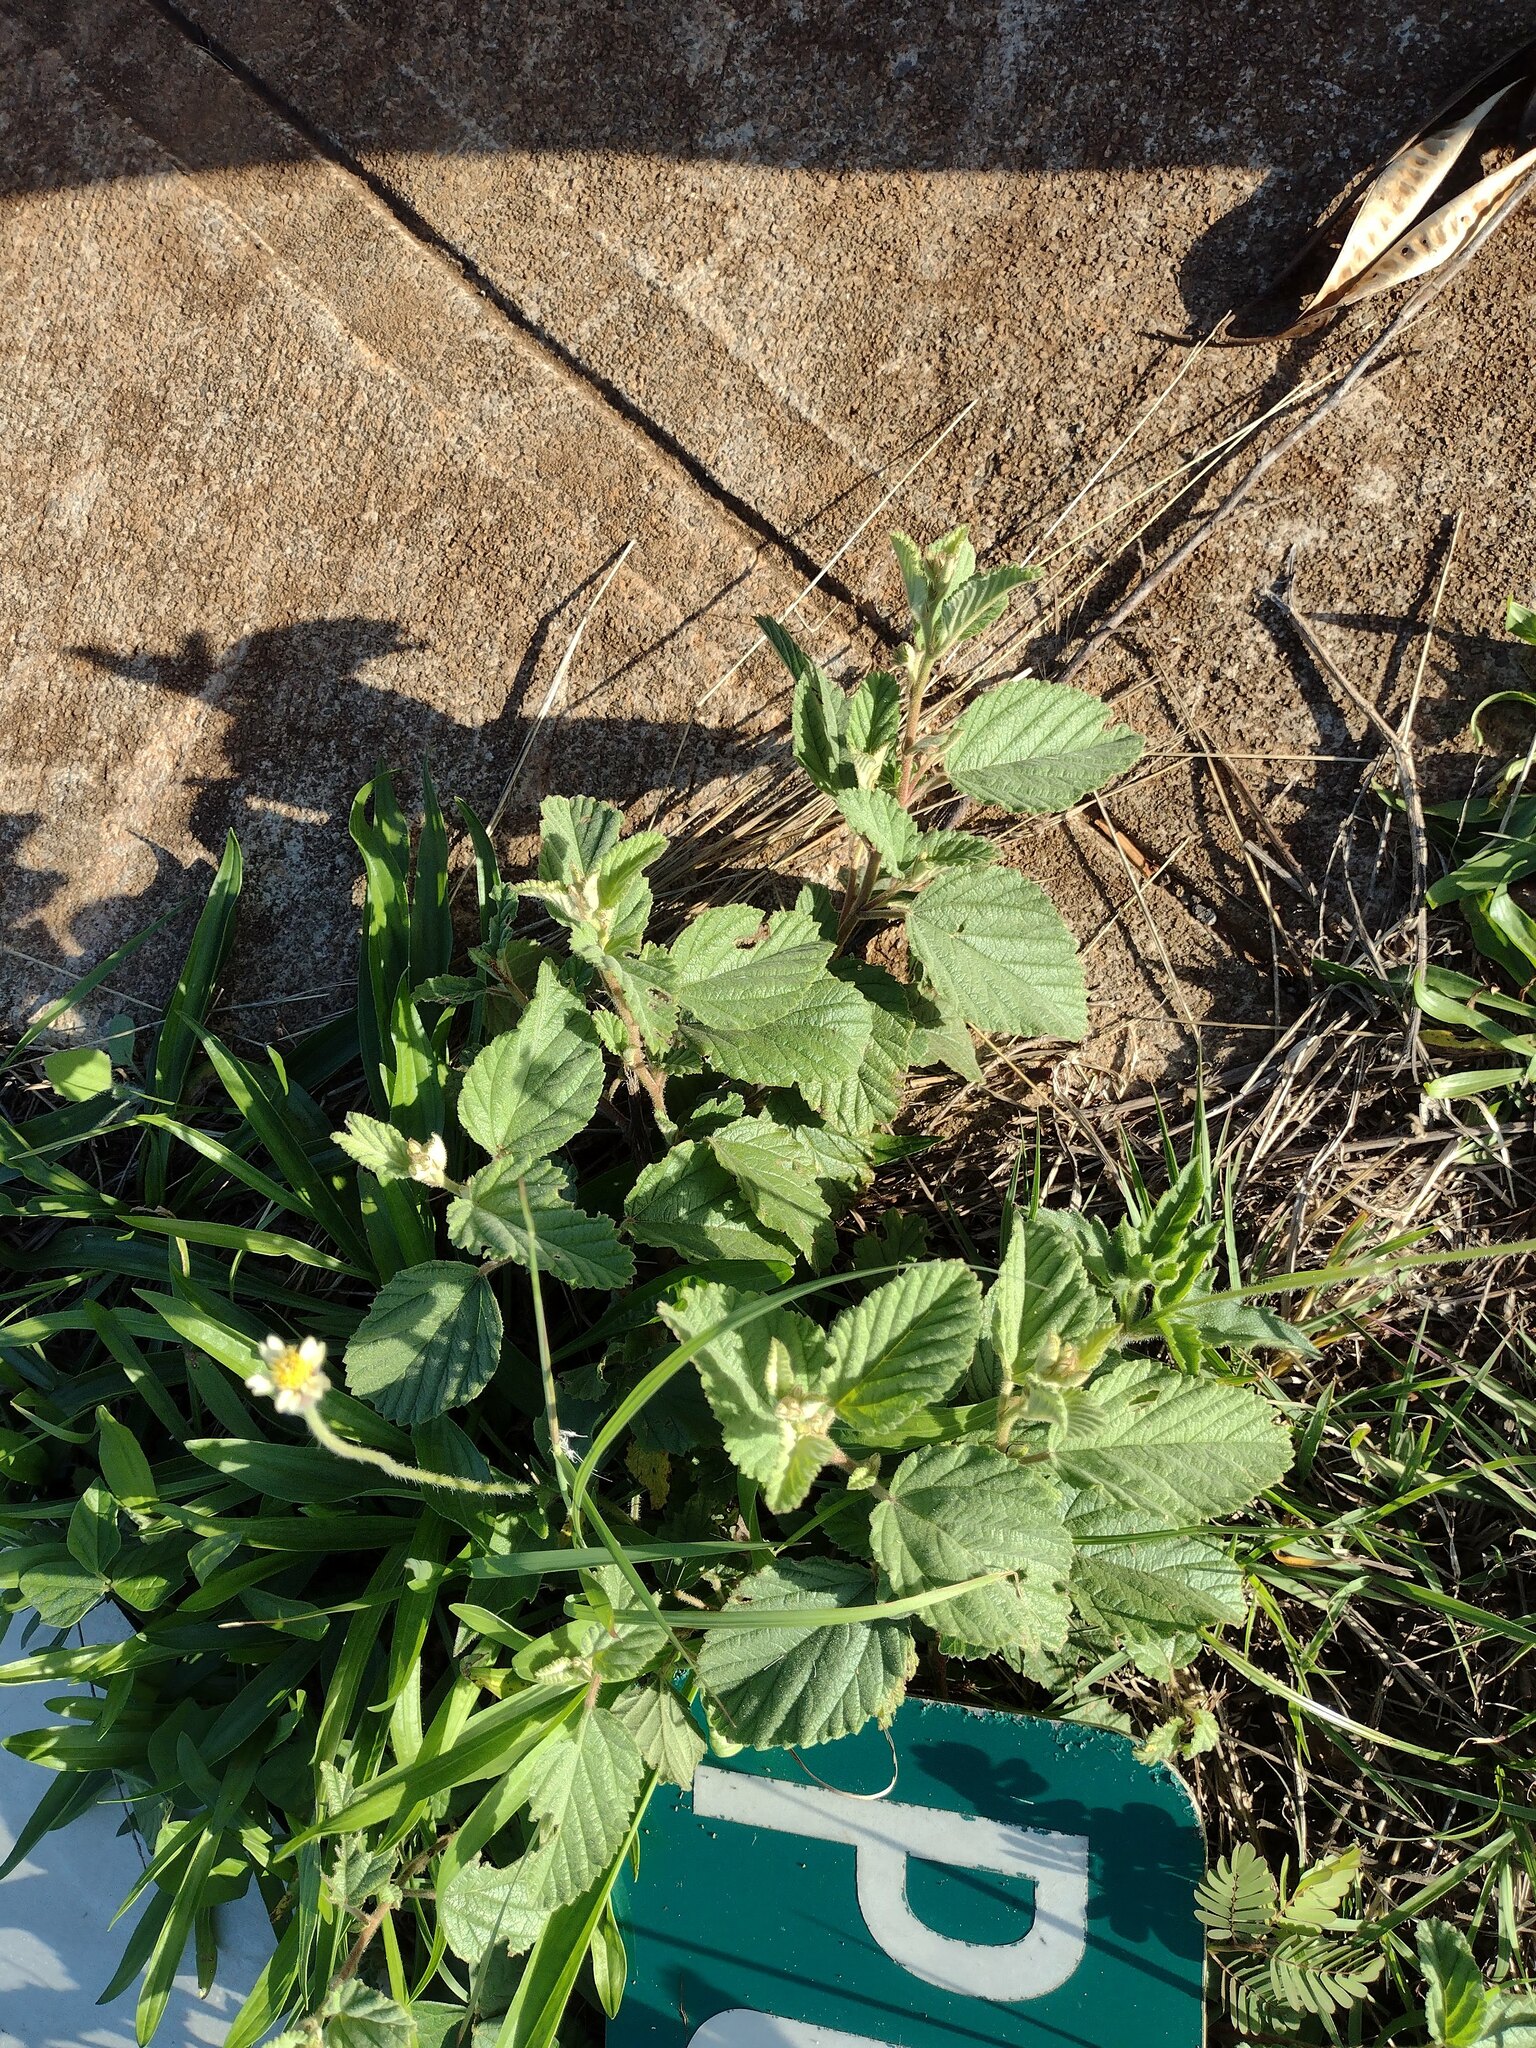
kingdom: Plantae
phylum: Tracheophyta
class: Magnoliopsida
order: Malvales
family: Malvaceae
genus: Waltheria
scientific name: Waltheria indica
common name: Leather-coat
